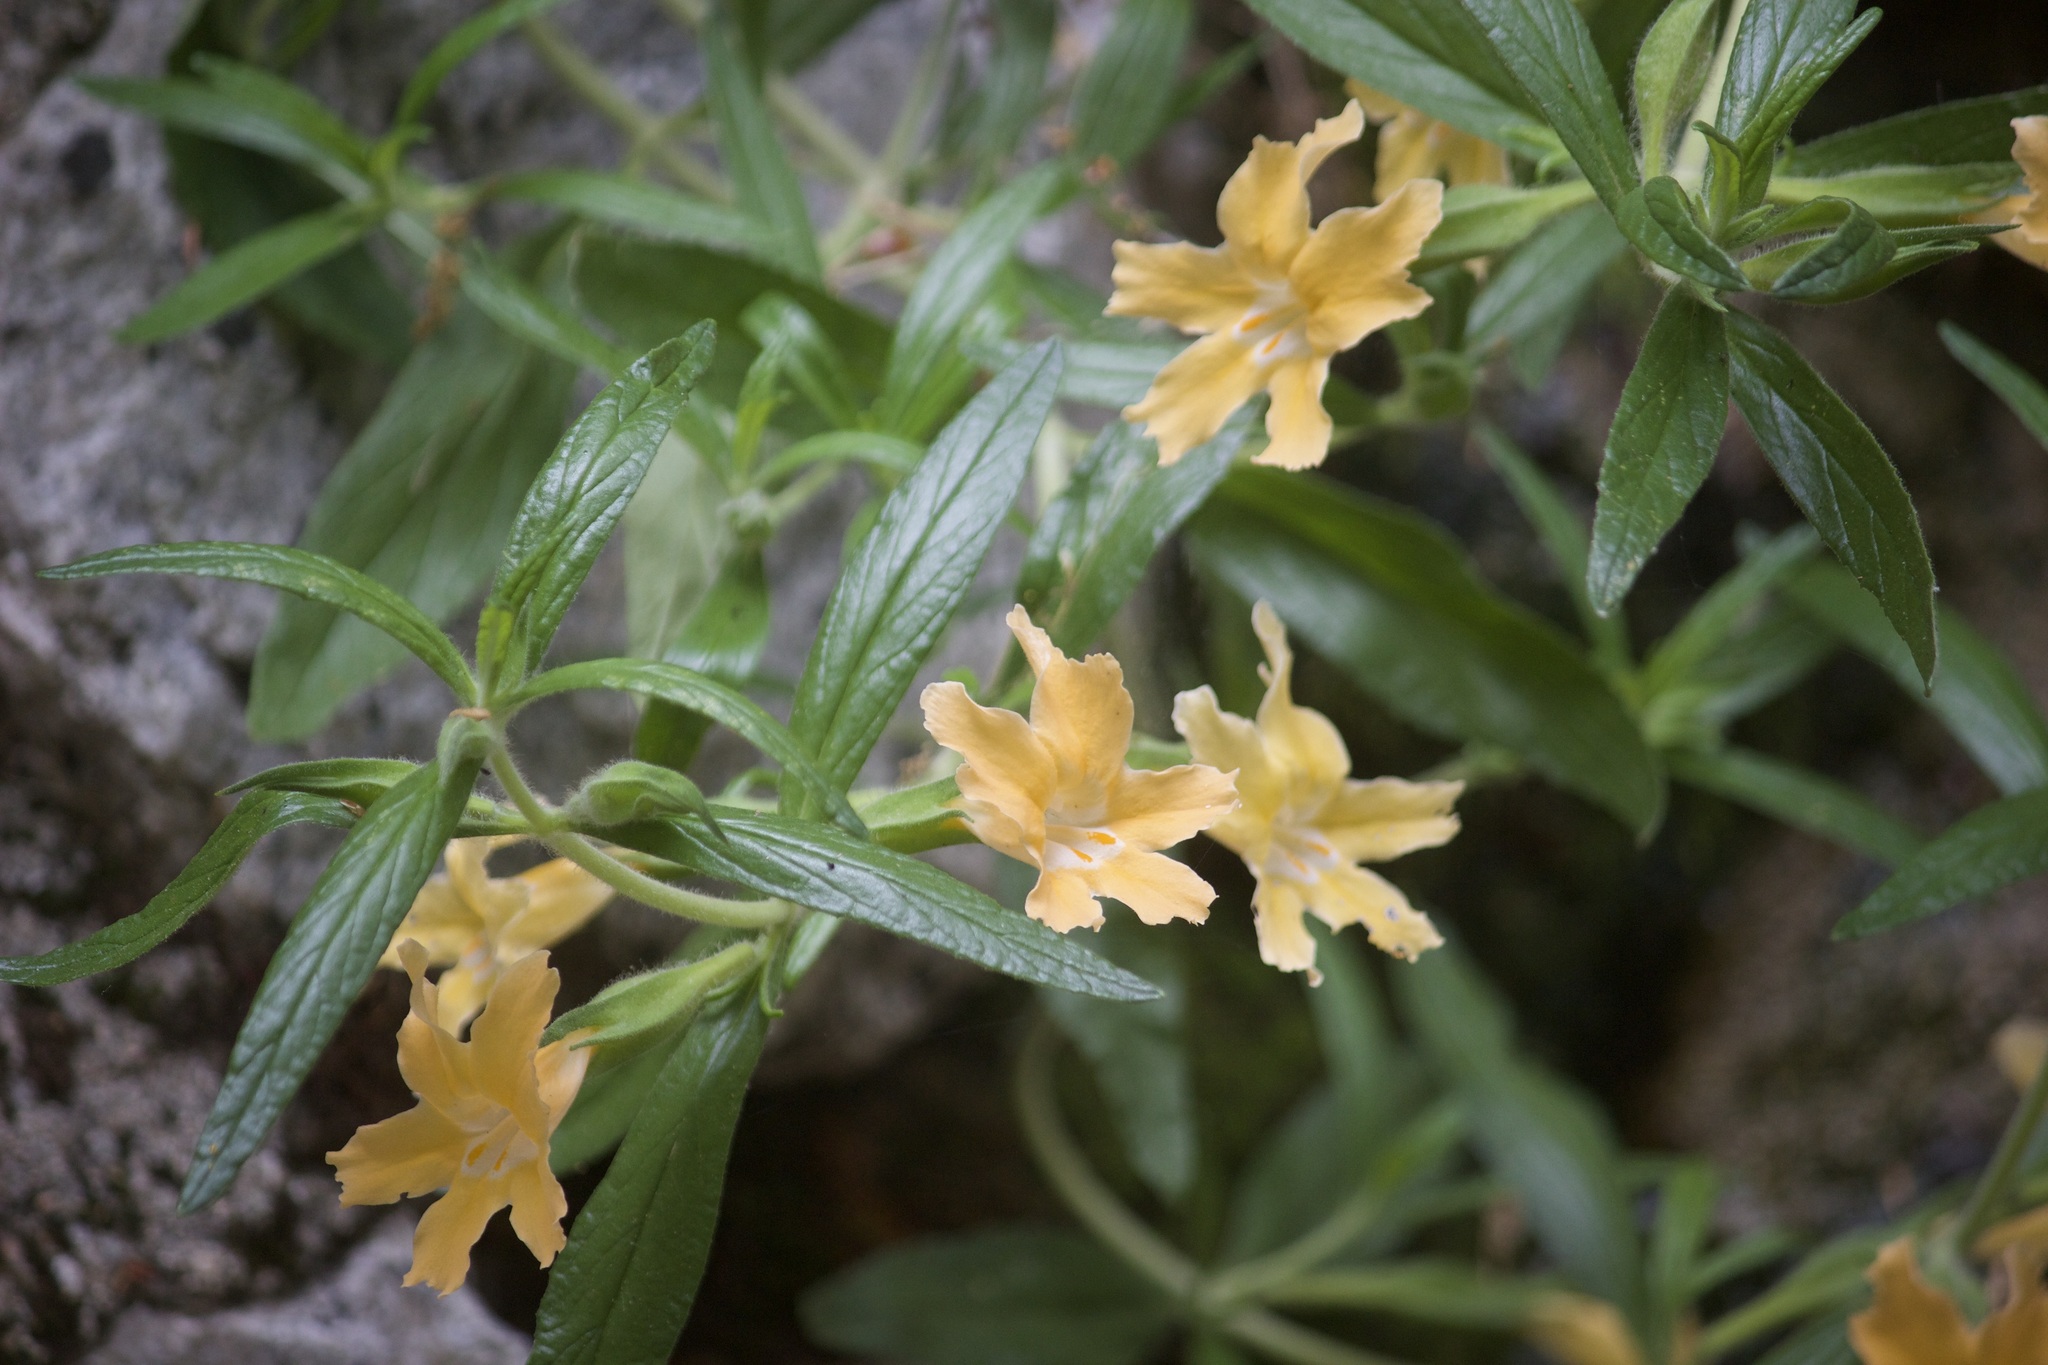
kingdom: Plantae
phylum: Tracheophyta
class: Magnoliopsida
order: Lamiales
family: Phrymaceae
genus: Diplacus
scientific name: Diplacus longiflorus
